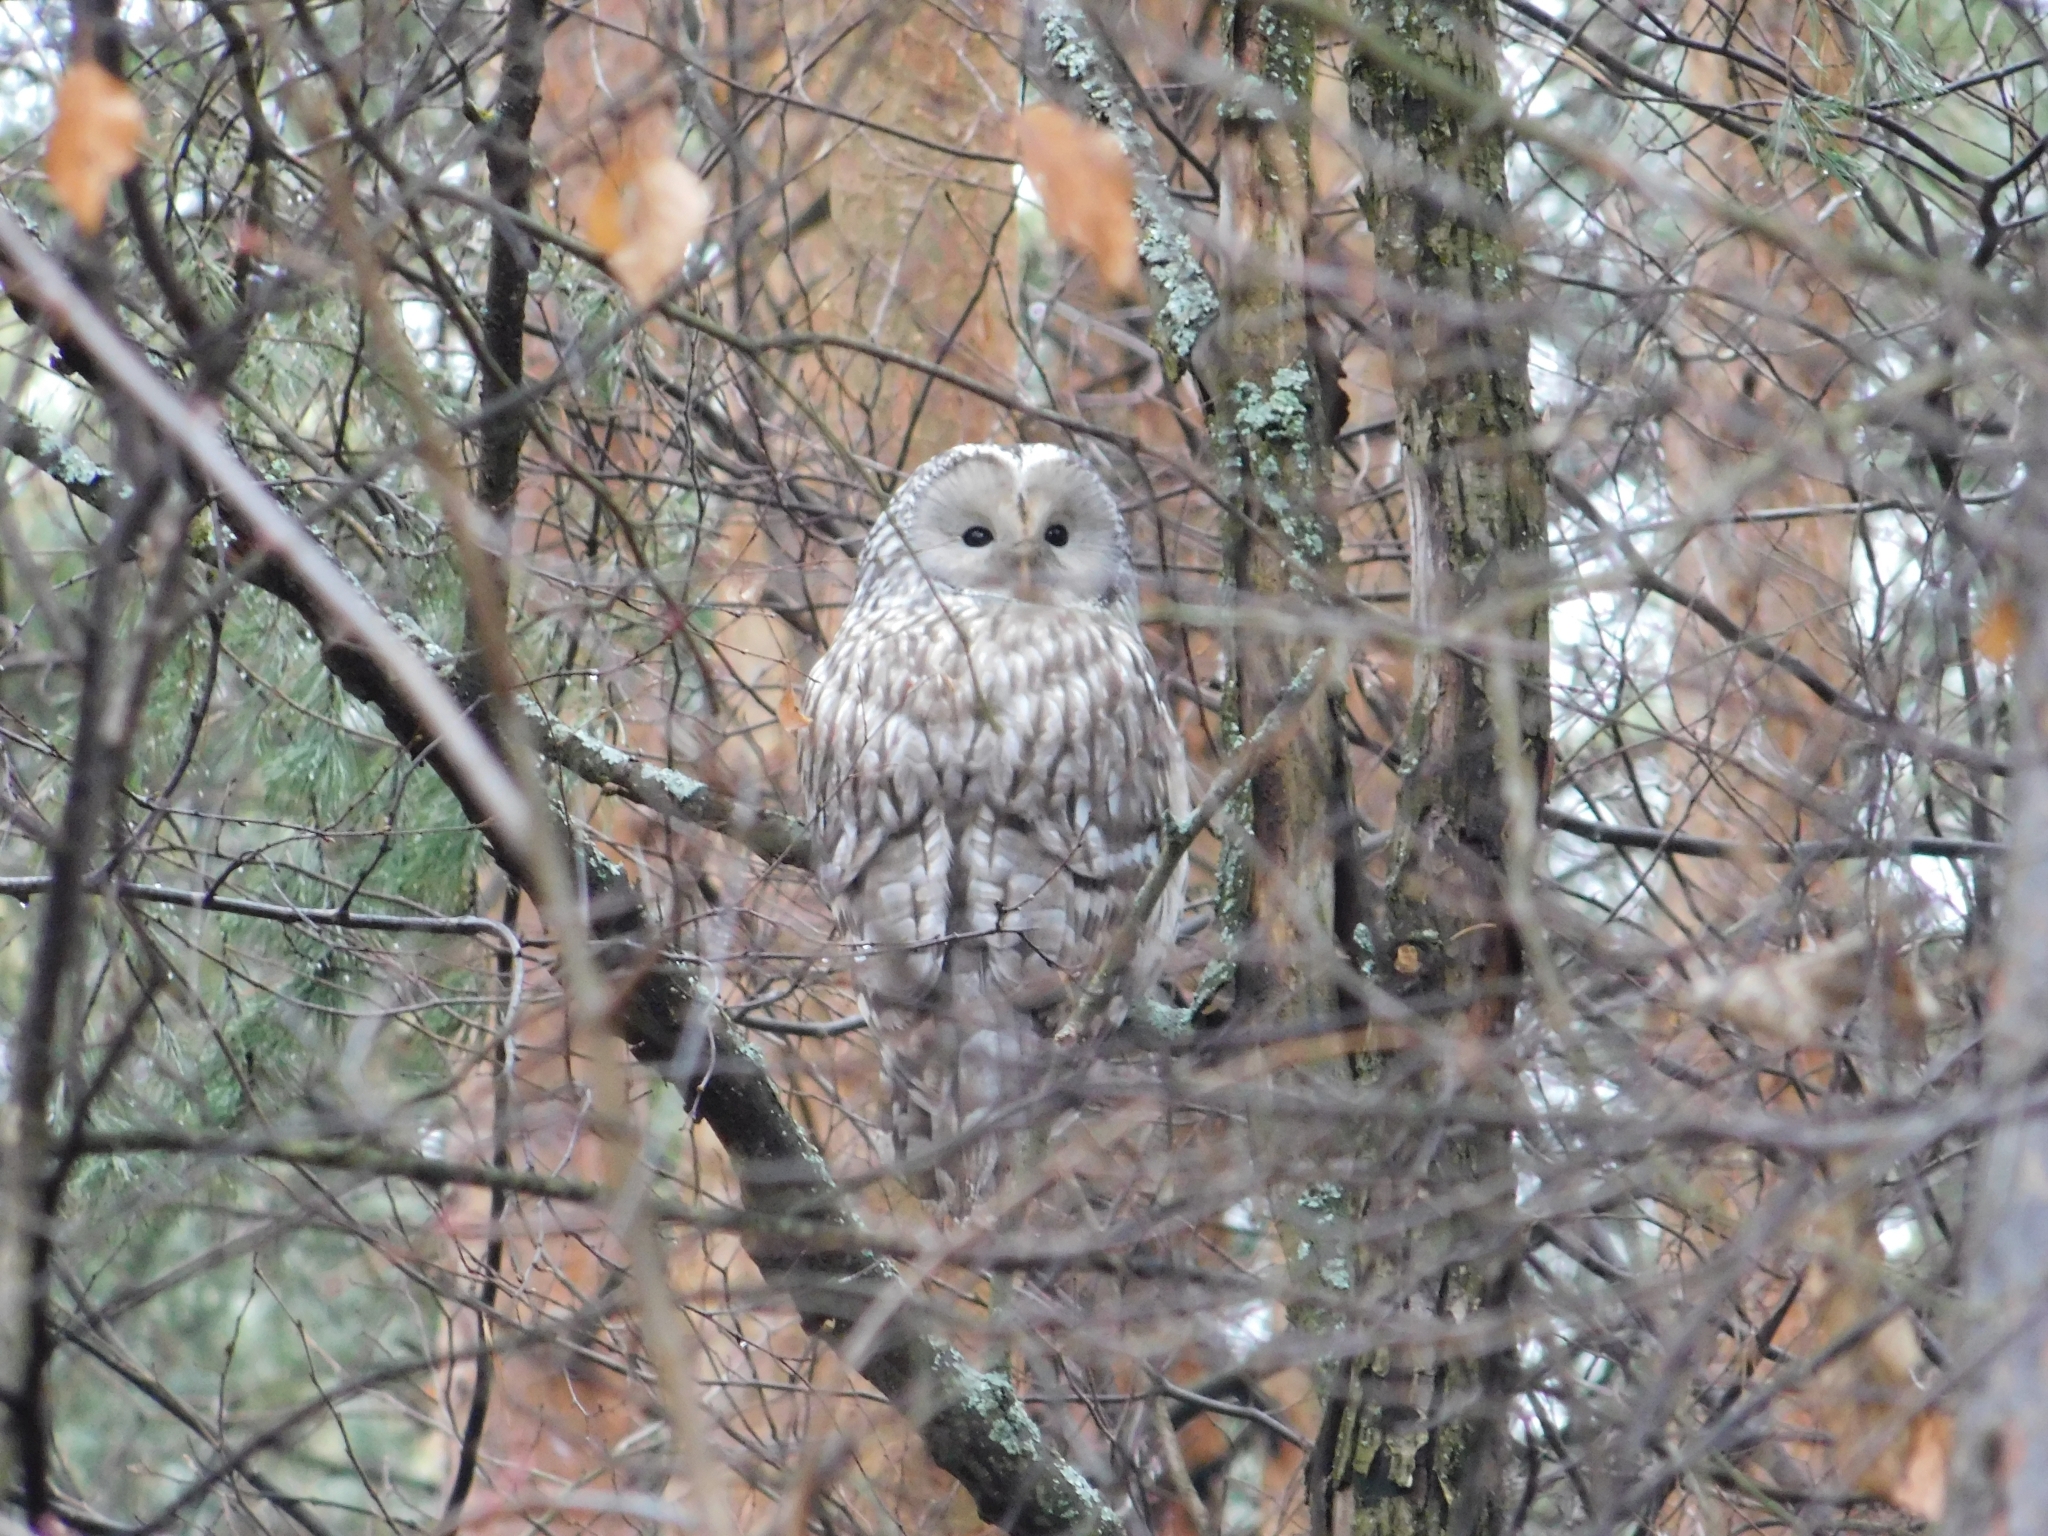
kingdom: Animalia
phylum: Chordata
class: Aves
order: Strigiformes
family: Strigidae
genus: Strix
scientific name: Strix uralensis
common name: Ural owl
